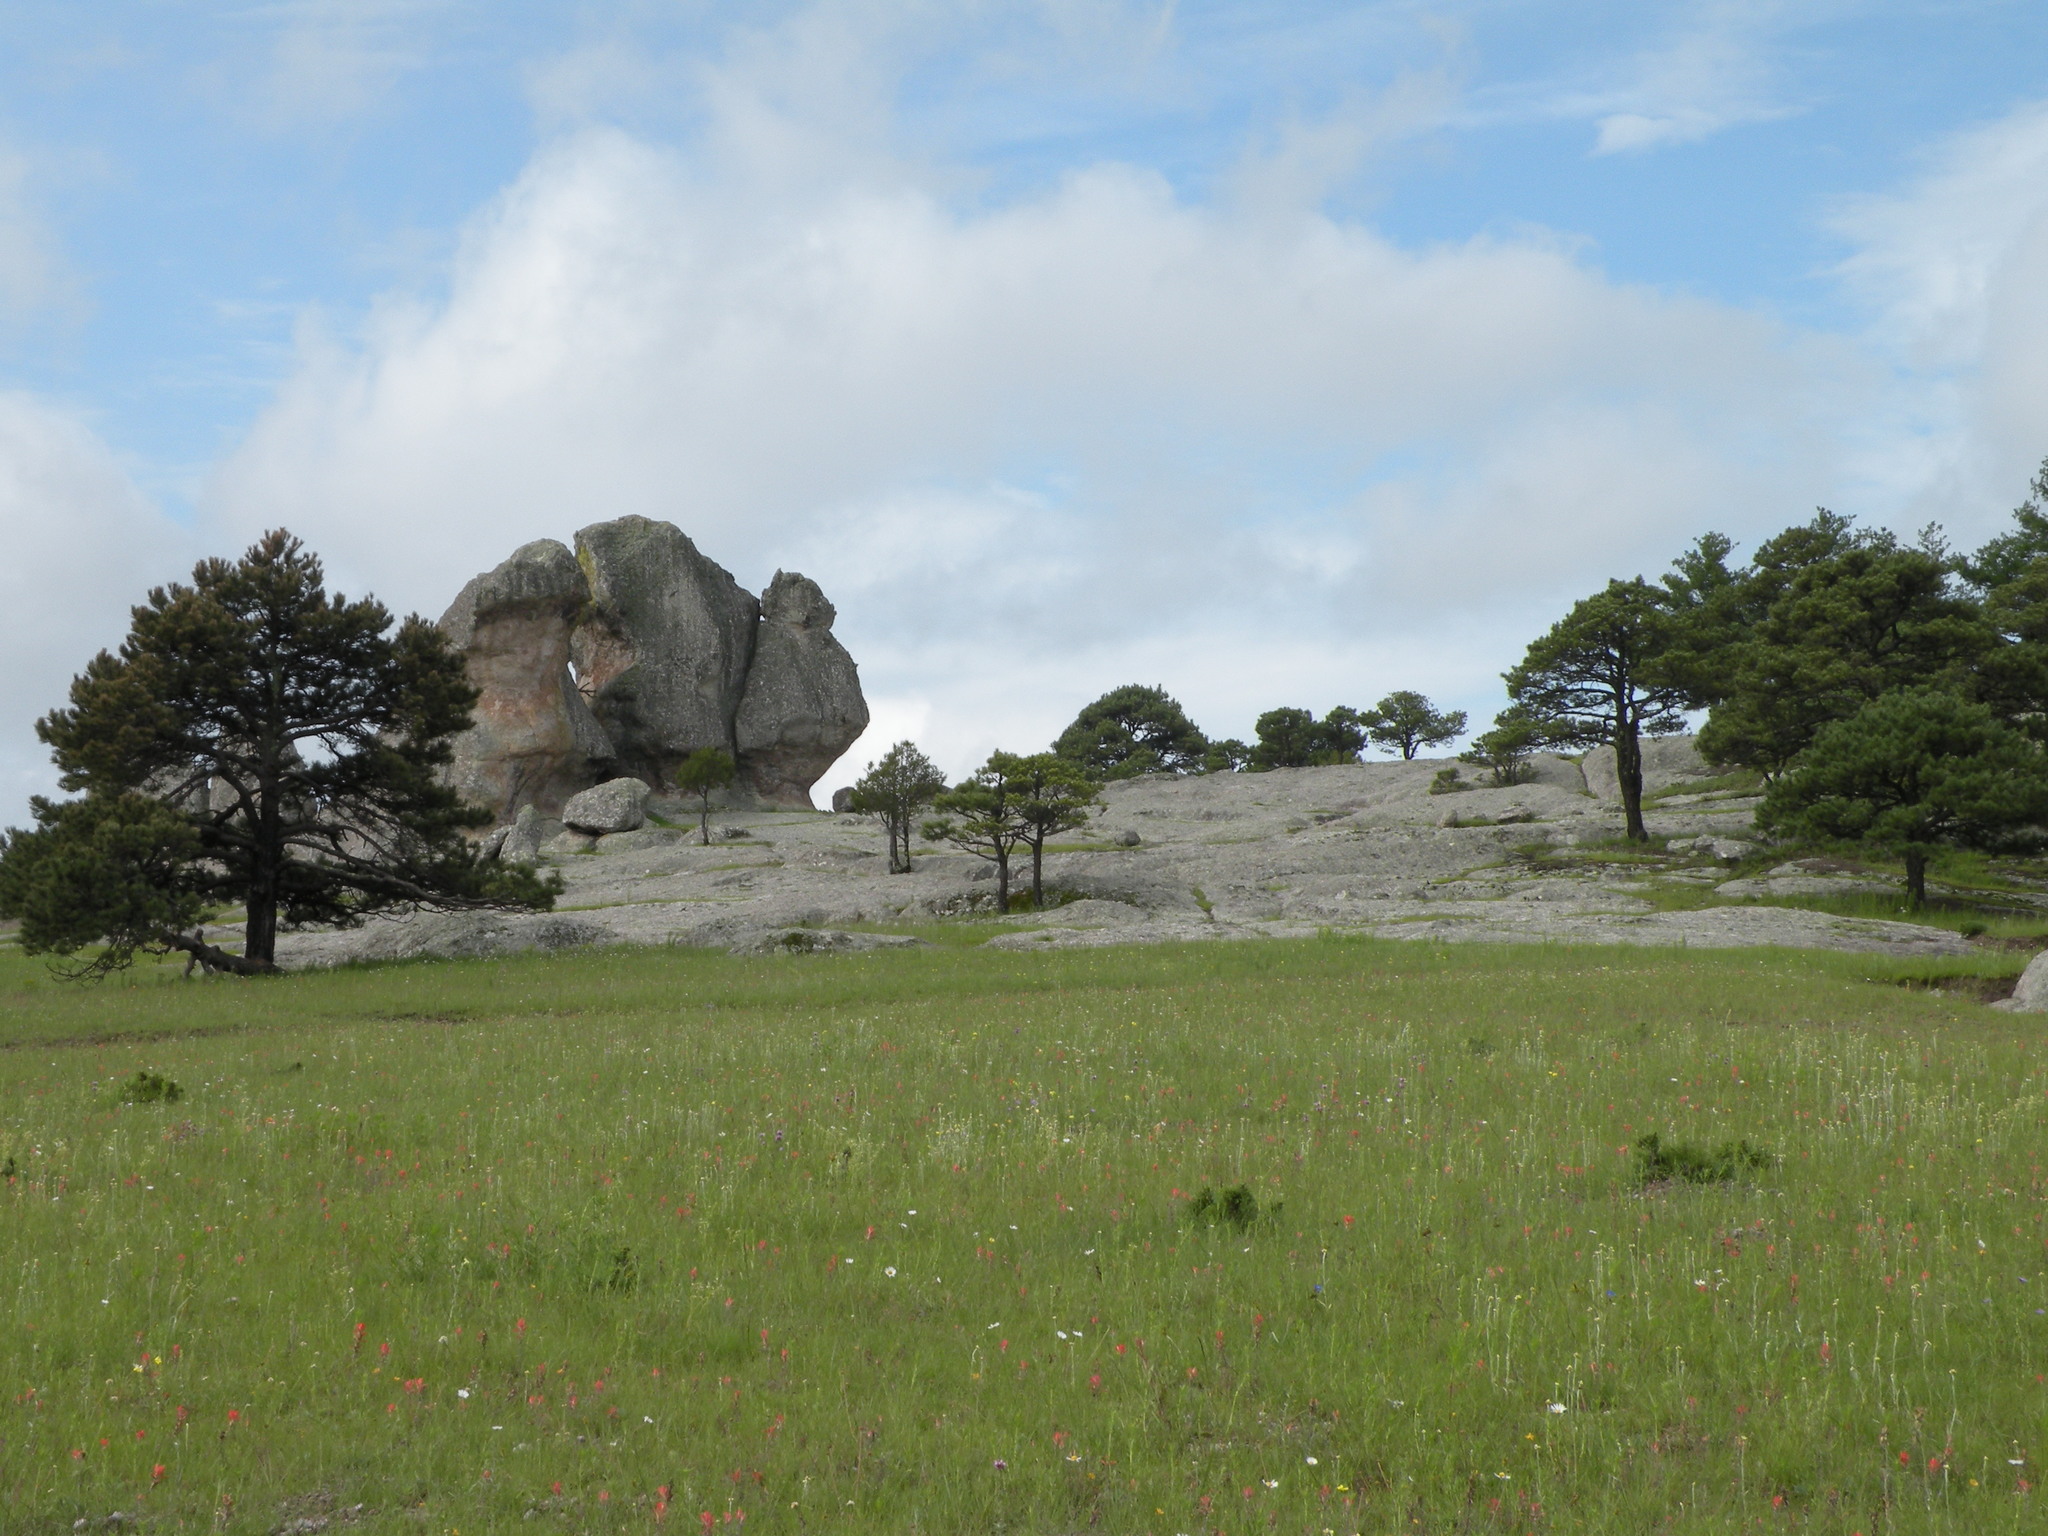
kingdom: Plantae
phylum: Tracheophyta
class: Pinopsida
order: Pinales
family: Pinaceae
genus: Pinus
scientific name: Pinus arizonica
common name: Arizona pine
